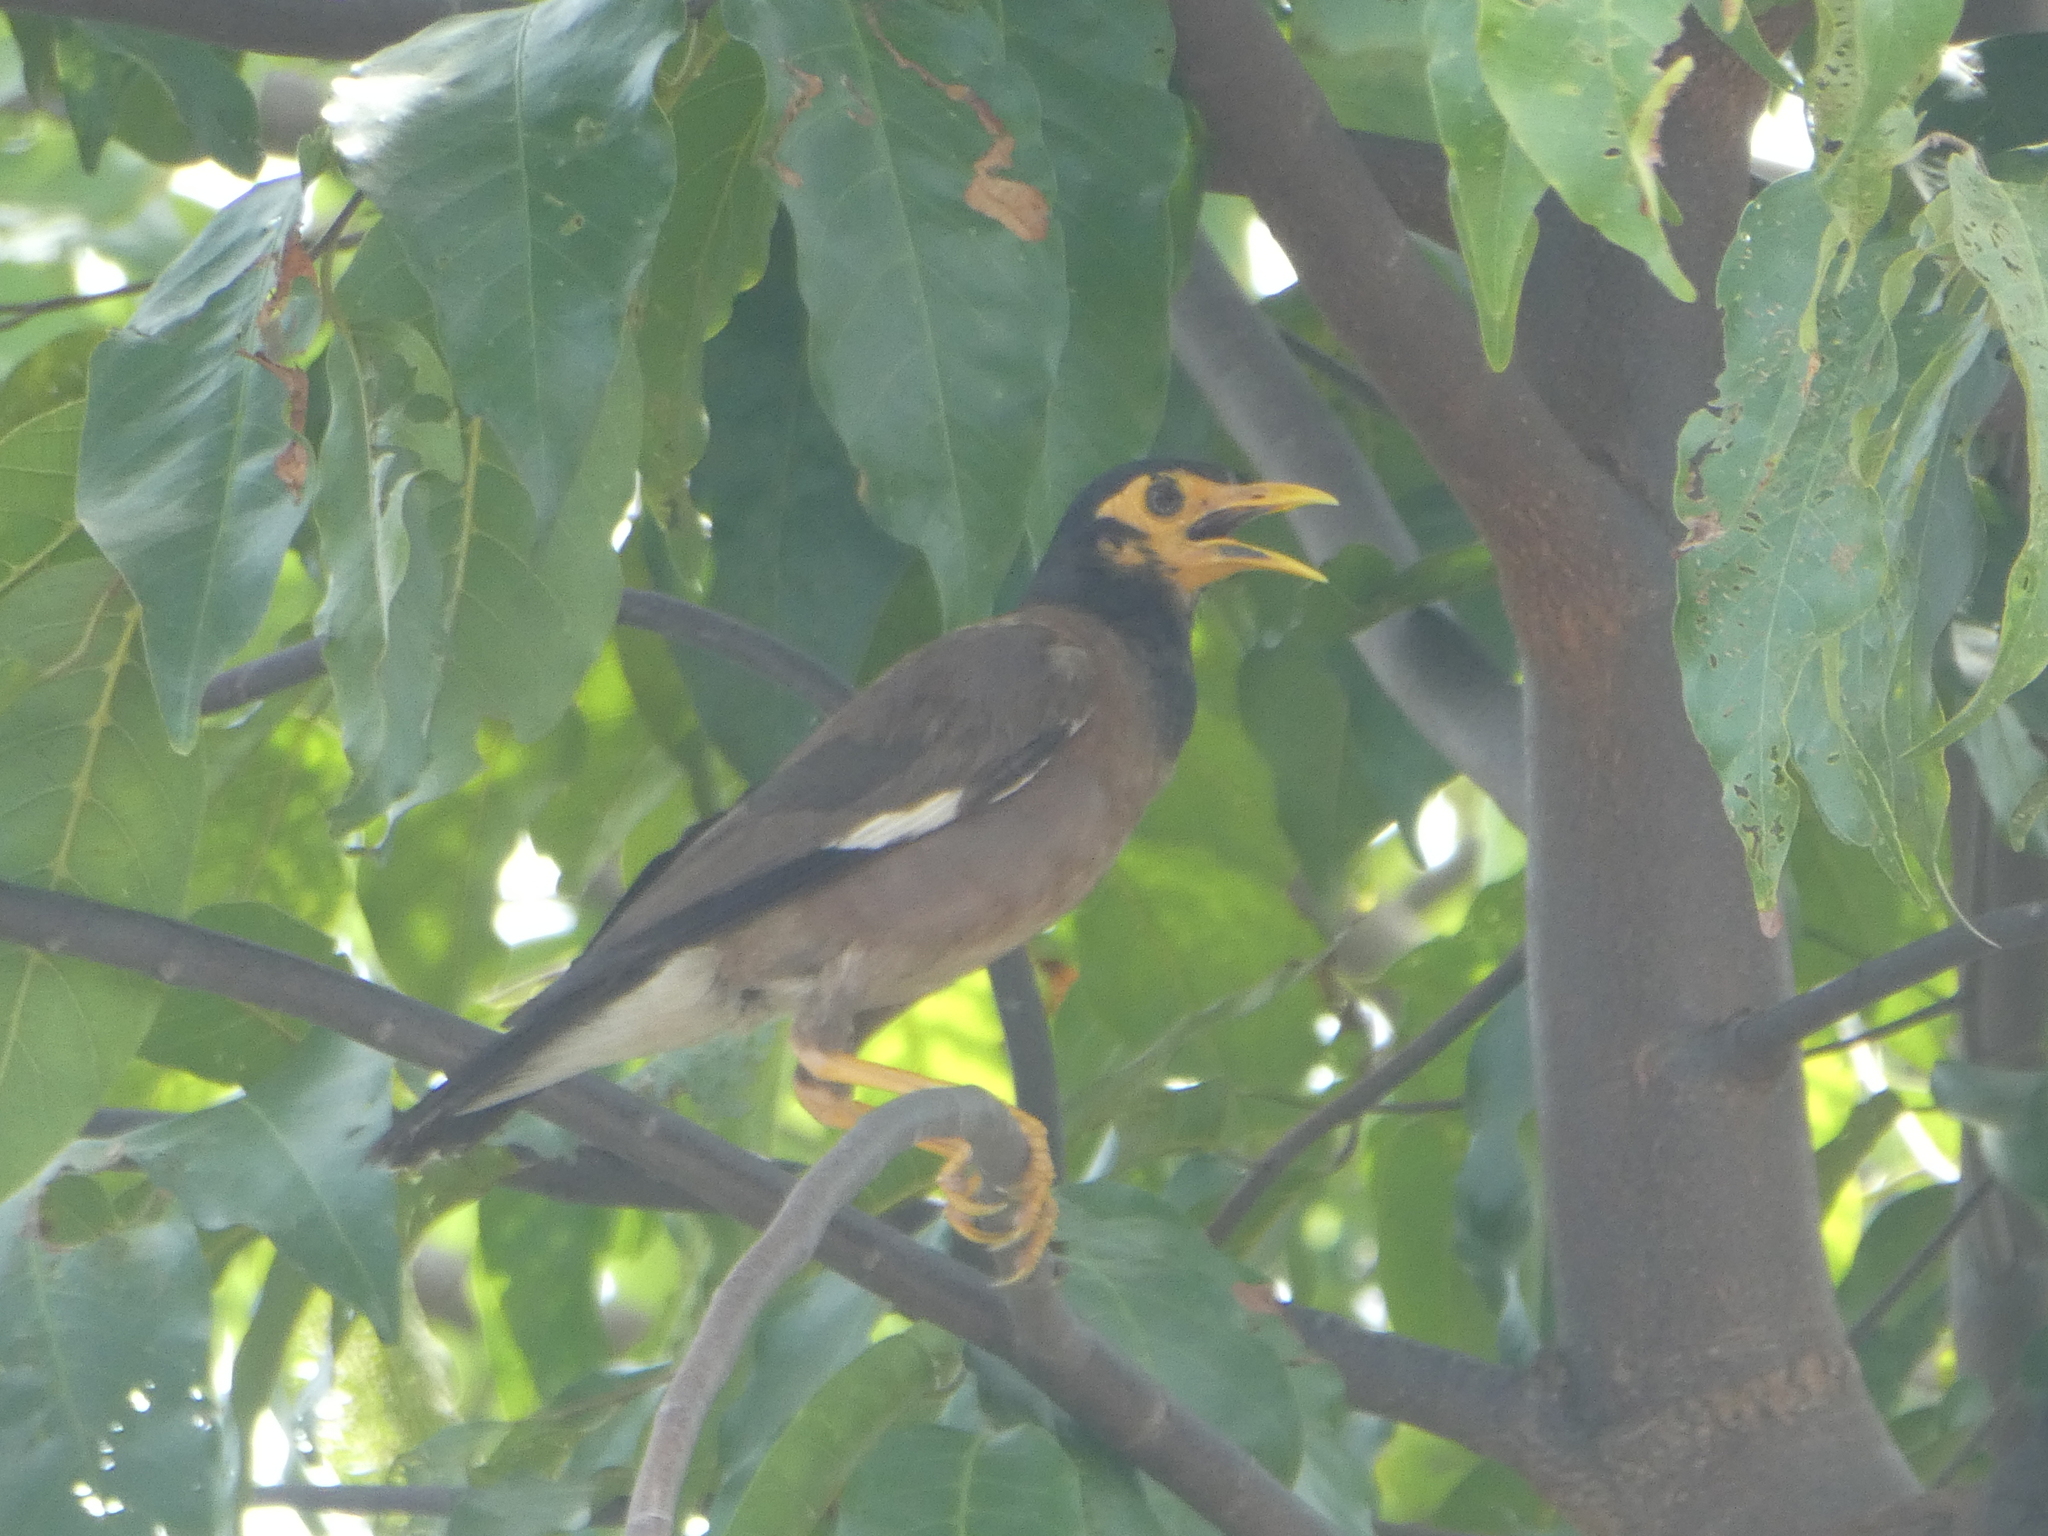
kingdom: Animalia
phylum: Chordata
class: Aves
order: Passeriformes
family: Sturnidae
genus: Acridotheres
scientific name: Acridotheres tristis
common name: Common myna
